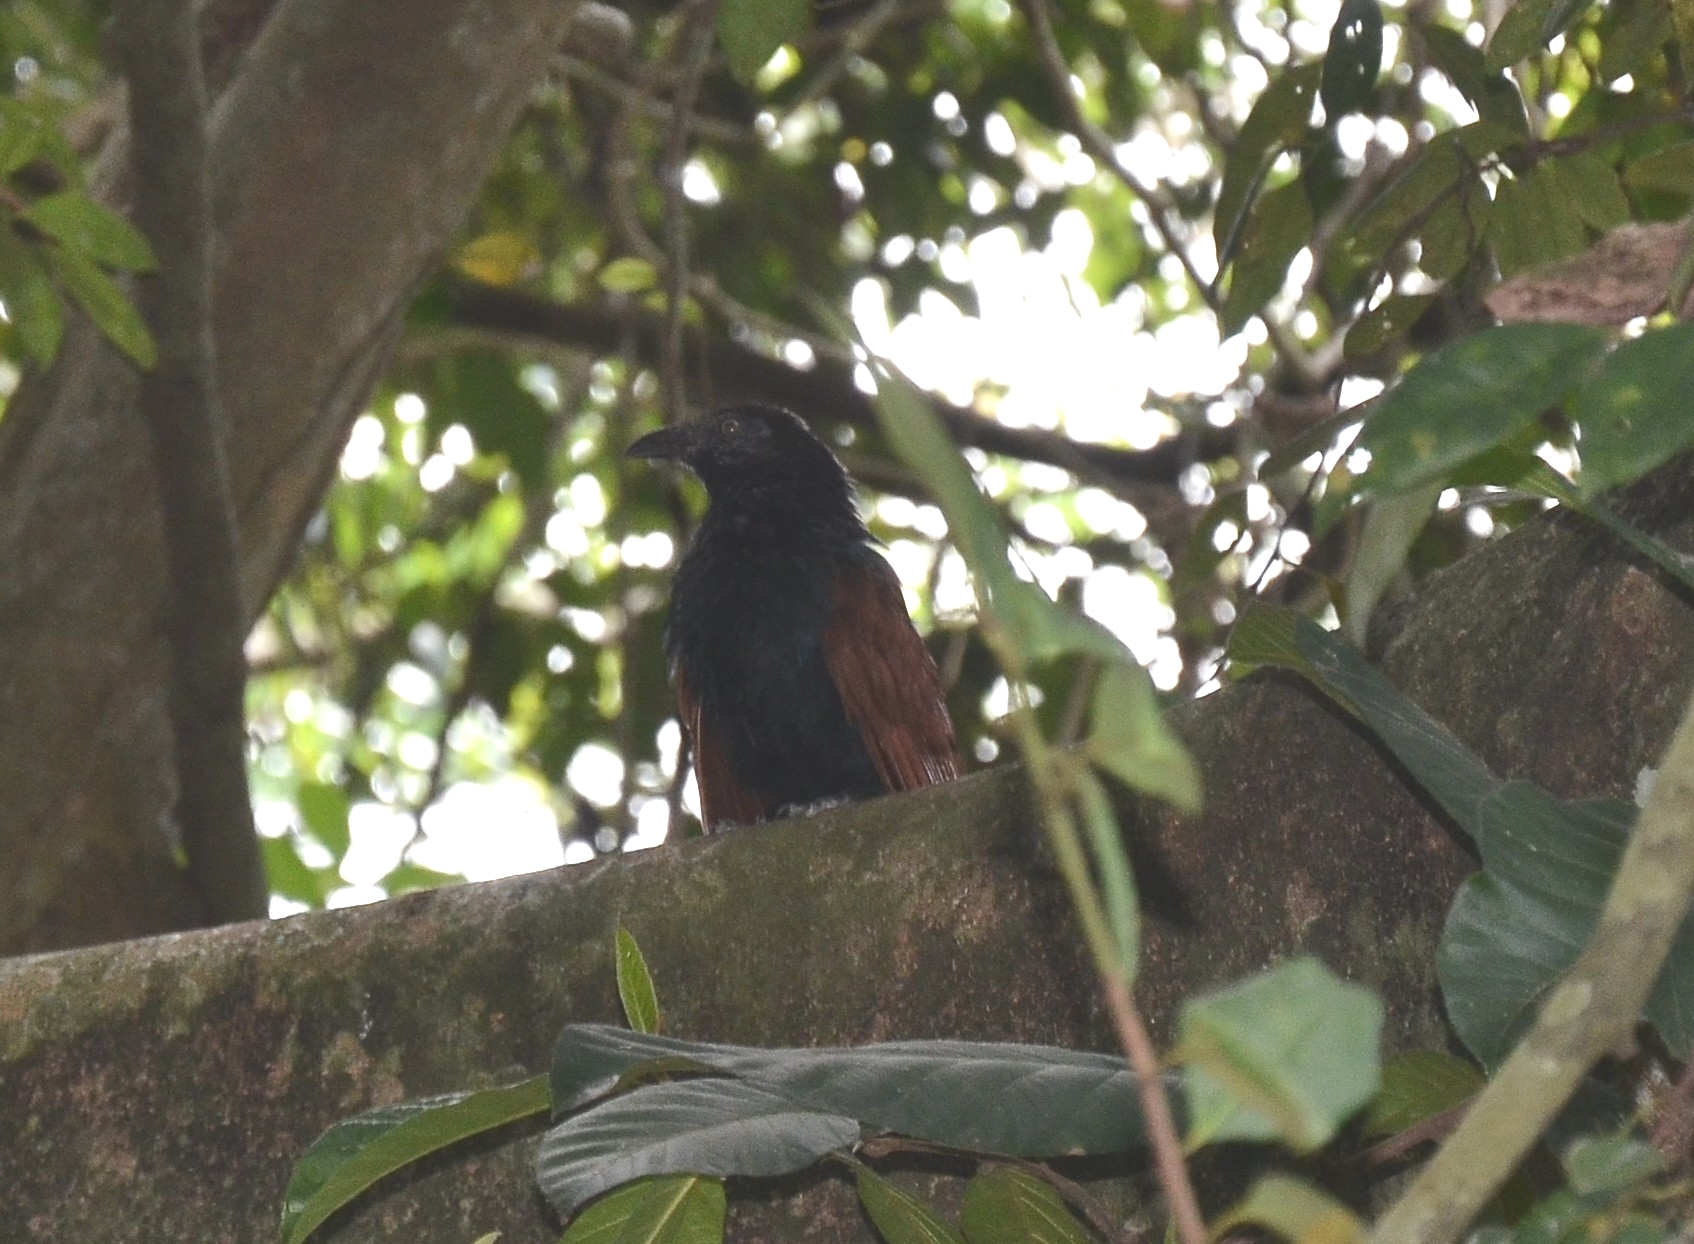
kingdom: Animalia
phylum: Chordata
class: Aves
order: Cuculiformes
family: Cuculidae
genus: Centropus
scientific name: Centropus sinensis
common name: Greater coucal
